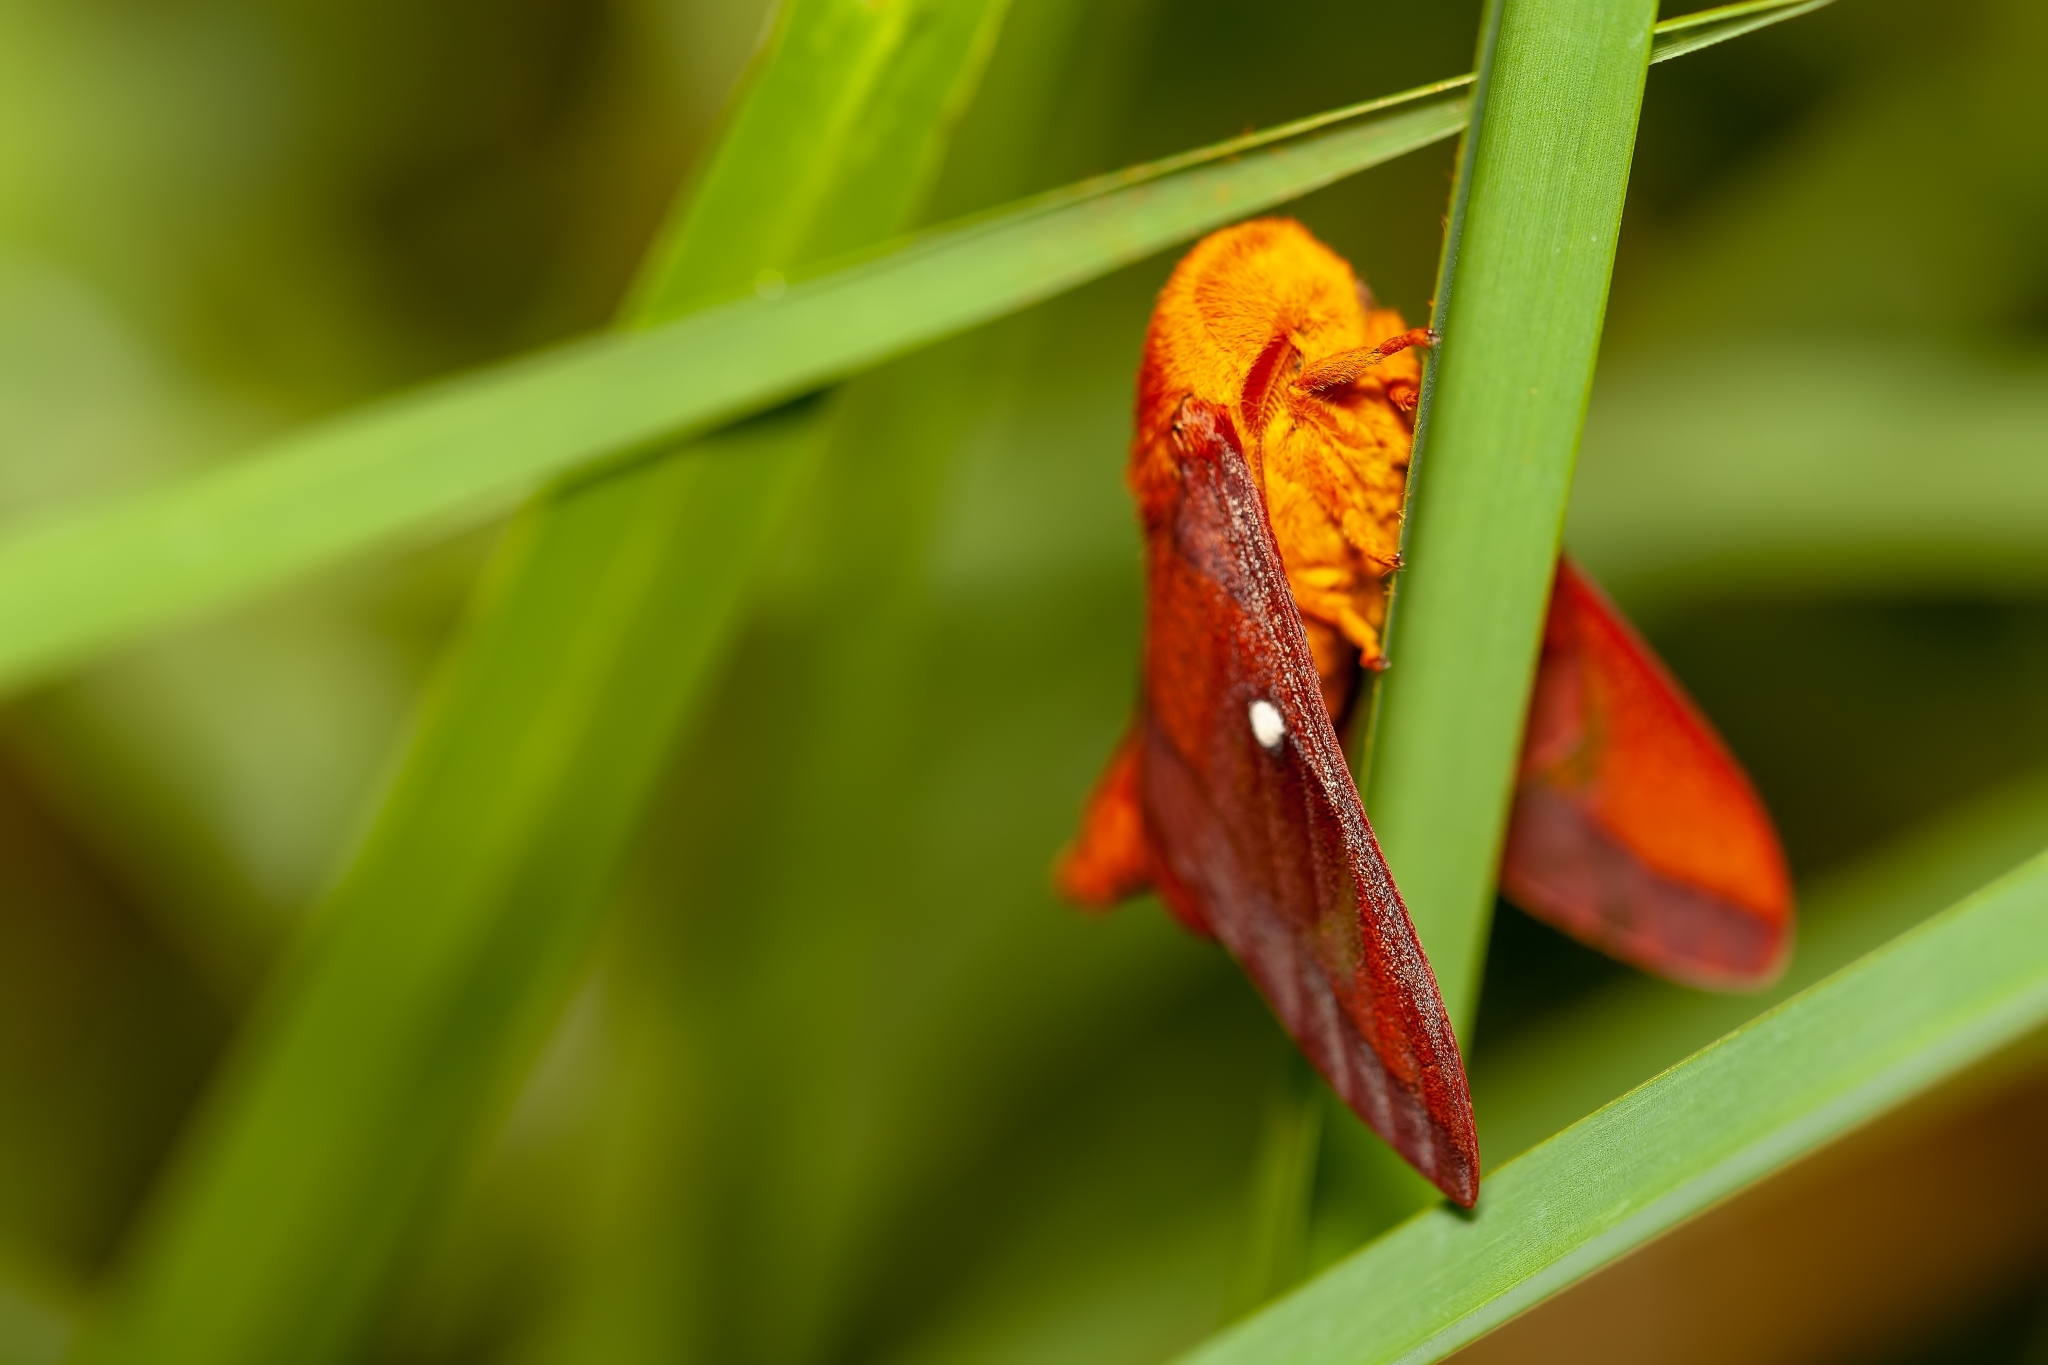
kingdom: Animalia
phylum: Arthropoda
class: Insecta
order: Lepidoptera
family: Saturniidae
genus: Anisota
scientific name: Anisota virginiensis
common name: Pink striped oakworm moth
